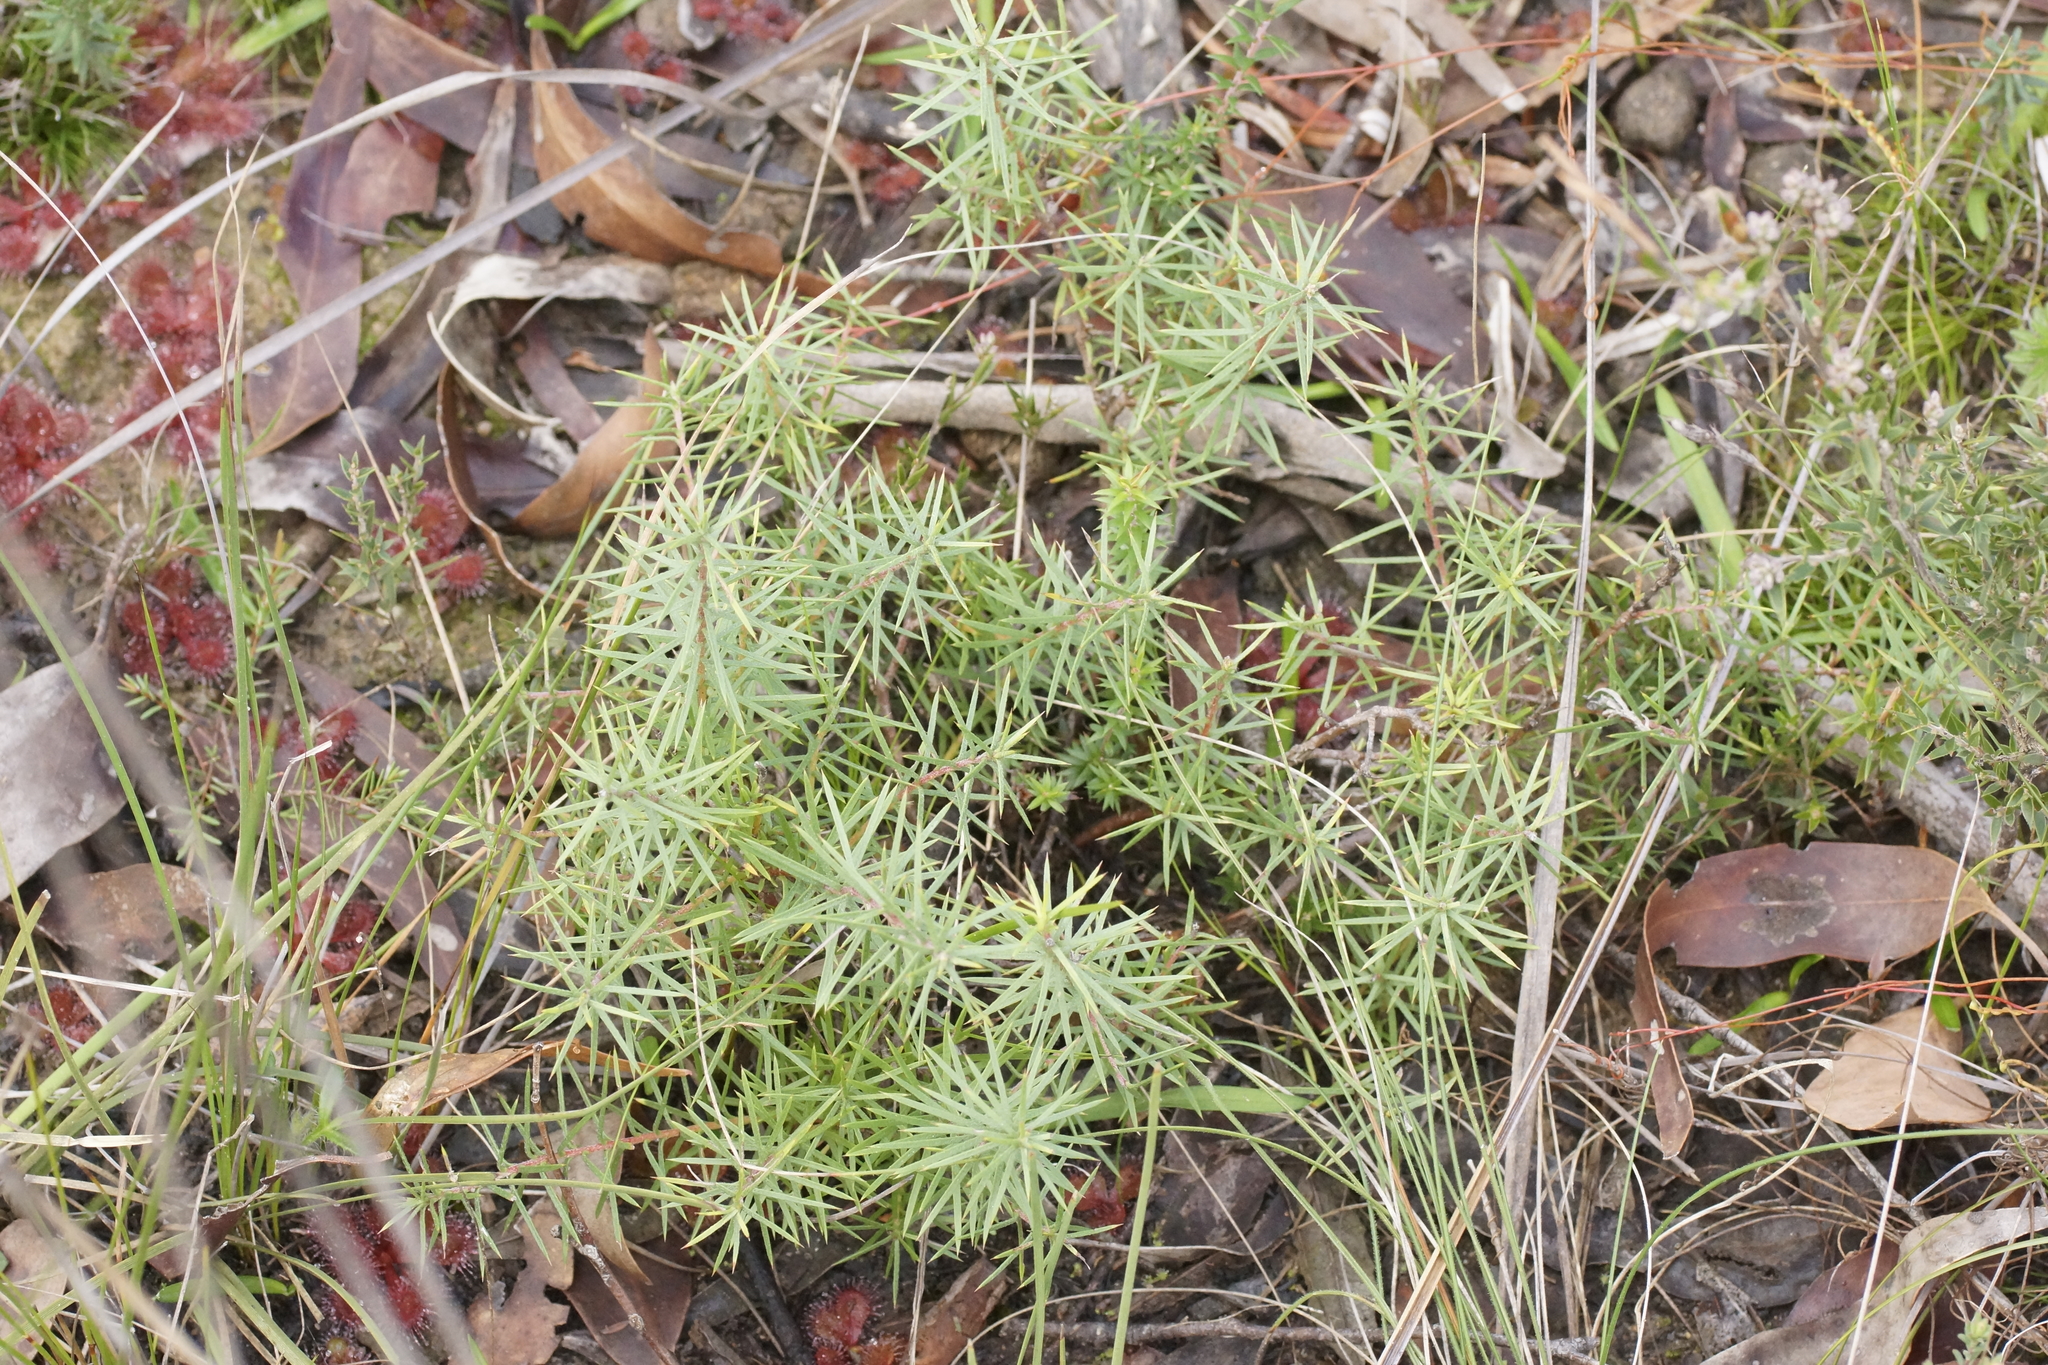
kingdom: Plantae
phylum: Tracheophyta
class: Magnoliopsida
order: Ericales
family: Ericaceae
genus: Acrotriche
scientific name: Acrotriche serrulata
